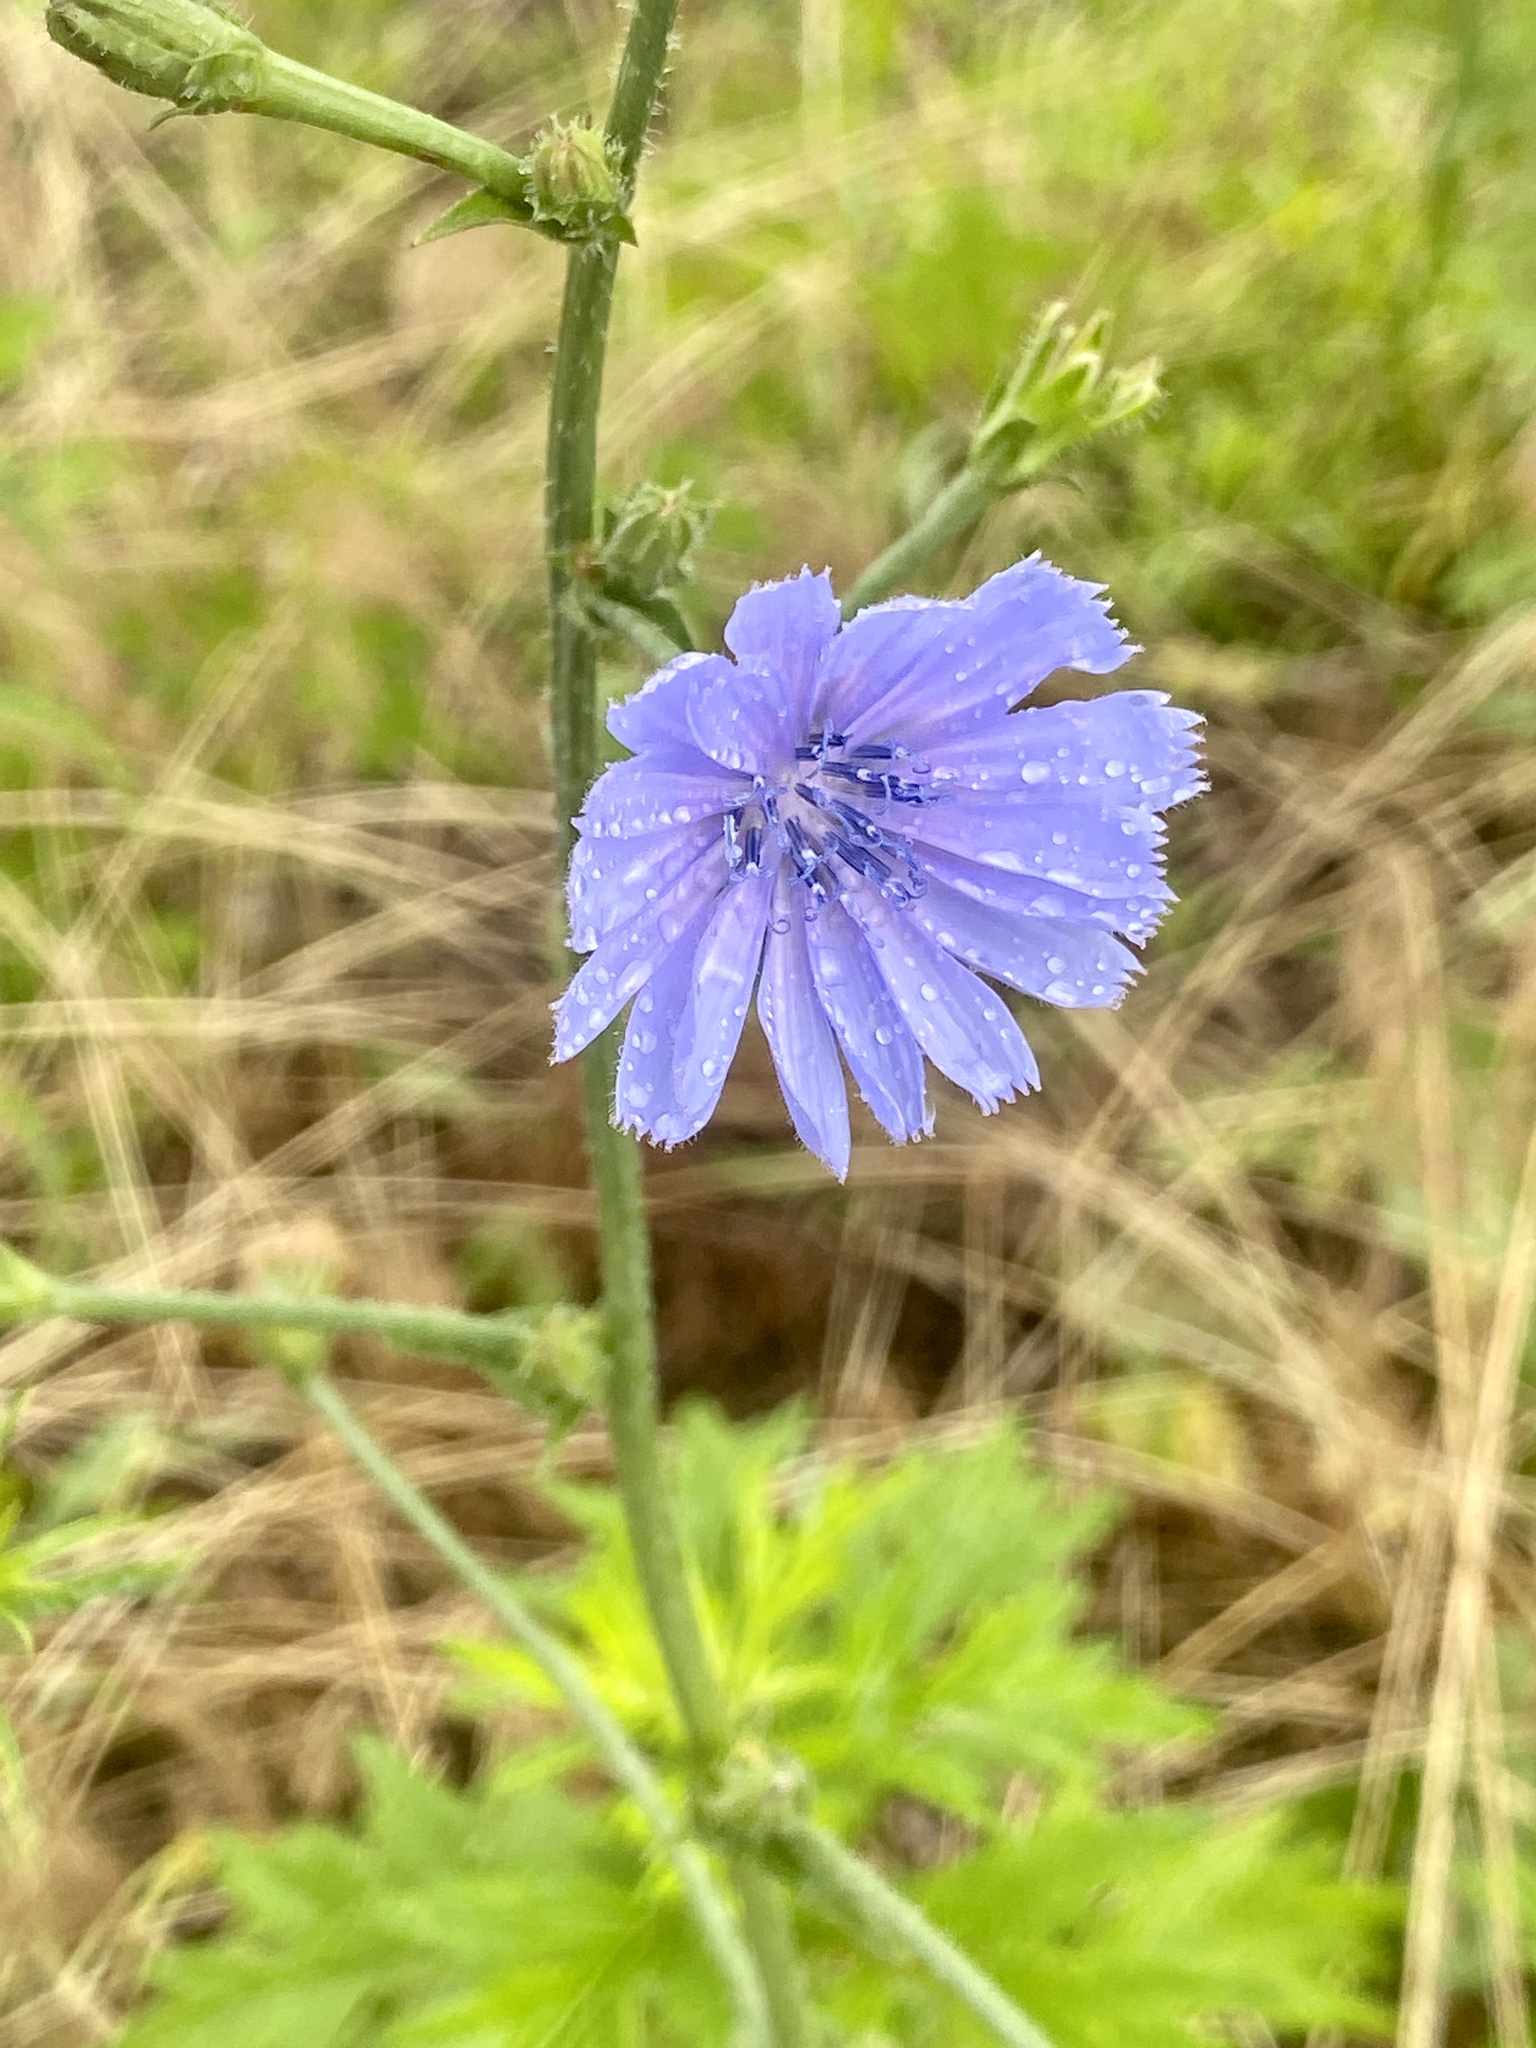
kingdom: Plantae
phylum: Tracheophyta
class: Magnoliopsida
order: Asterales
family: Asteraceae
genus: Cichorium
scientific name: Cichorium intybus
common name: Chicory
